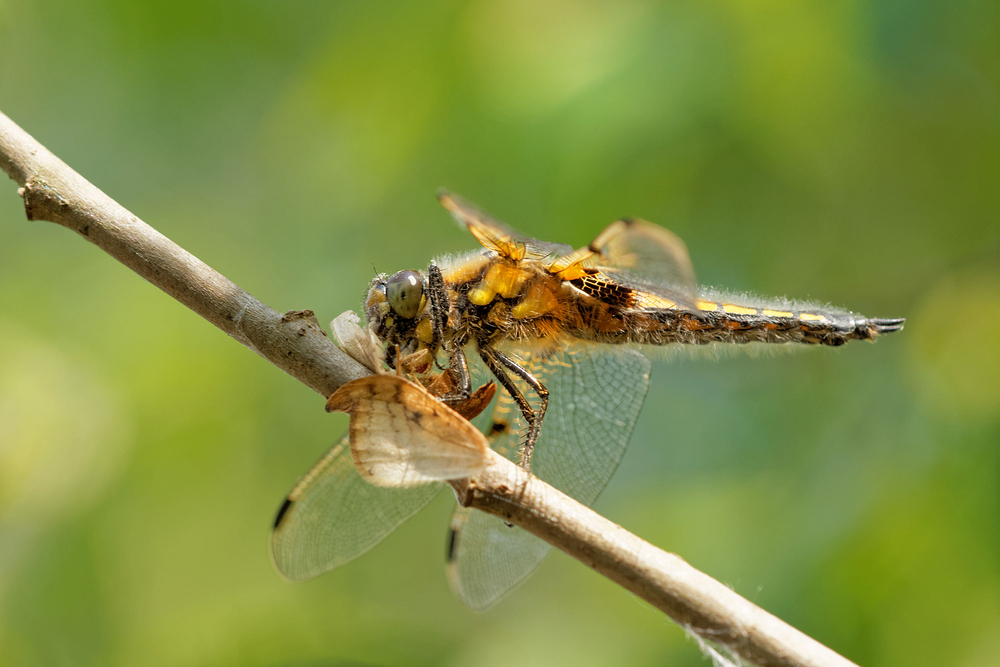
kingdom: Animalia
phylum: Arthropoda
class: Insecta
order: Odonata
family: Libellulidae
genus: Libellula
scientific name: Libellula quadrimaculata
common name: Four-spotted chaser
